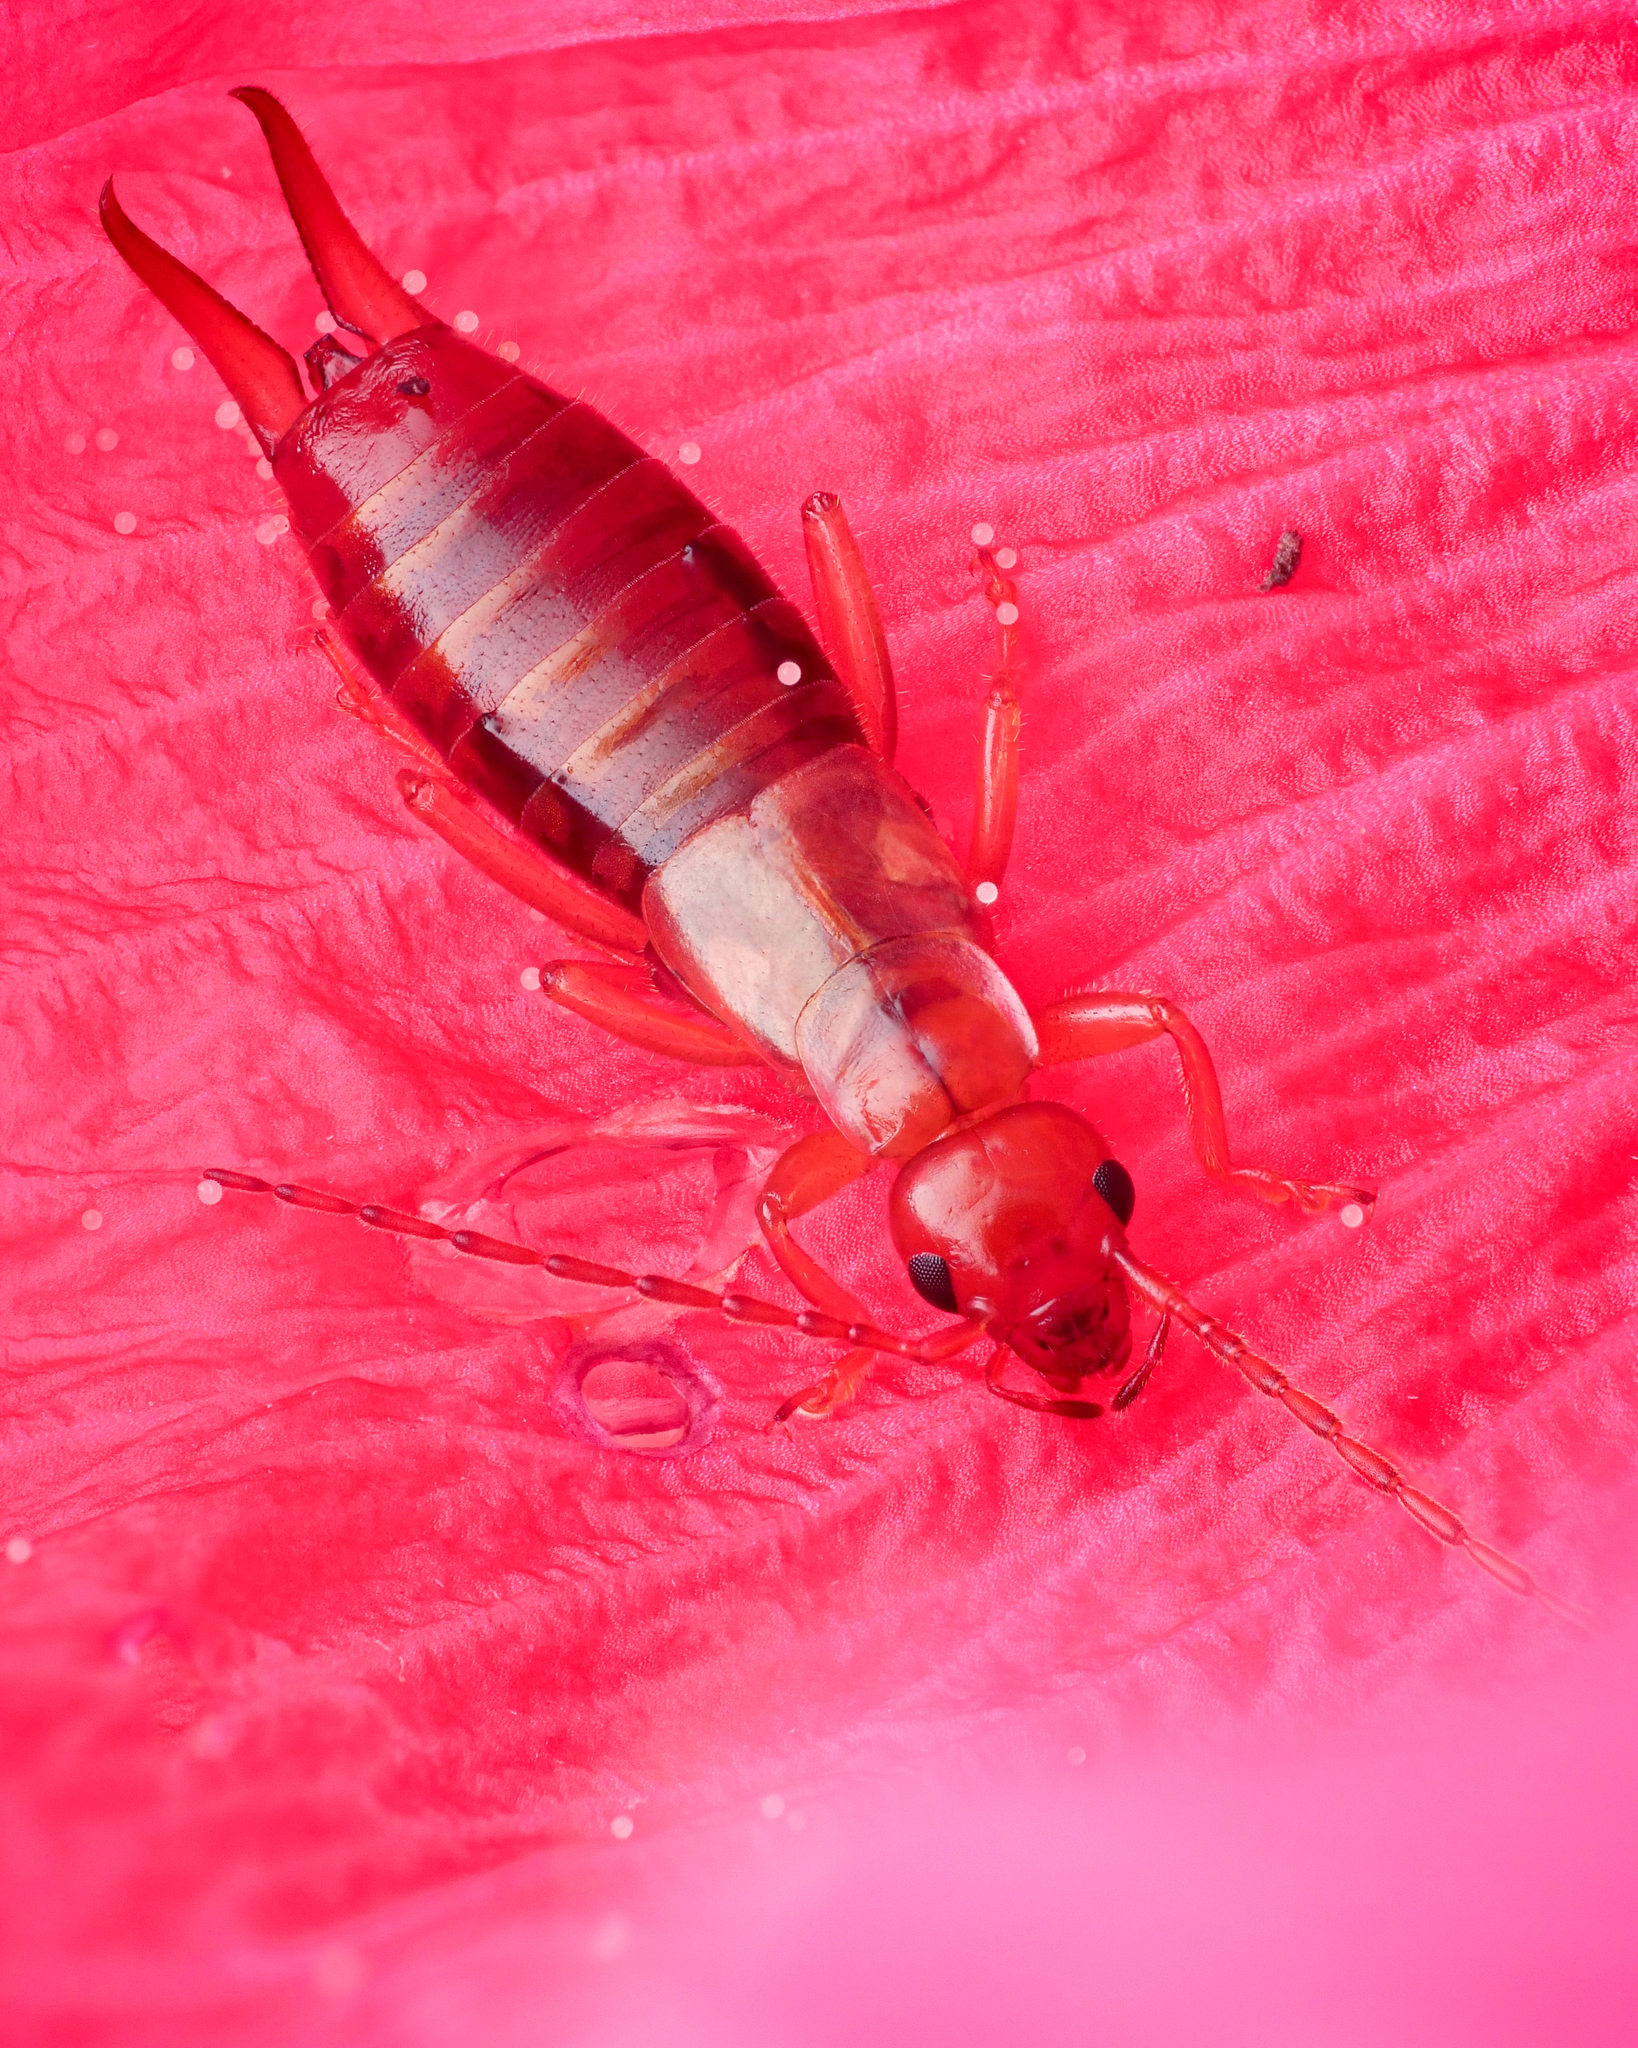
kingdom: Animalia
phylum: Arthropoda
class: Insecta
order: Dermaptera
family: Forficulidae
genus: Apterygida
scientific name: Apterygida albipennis
